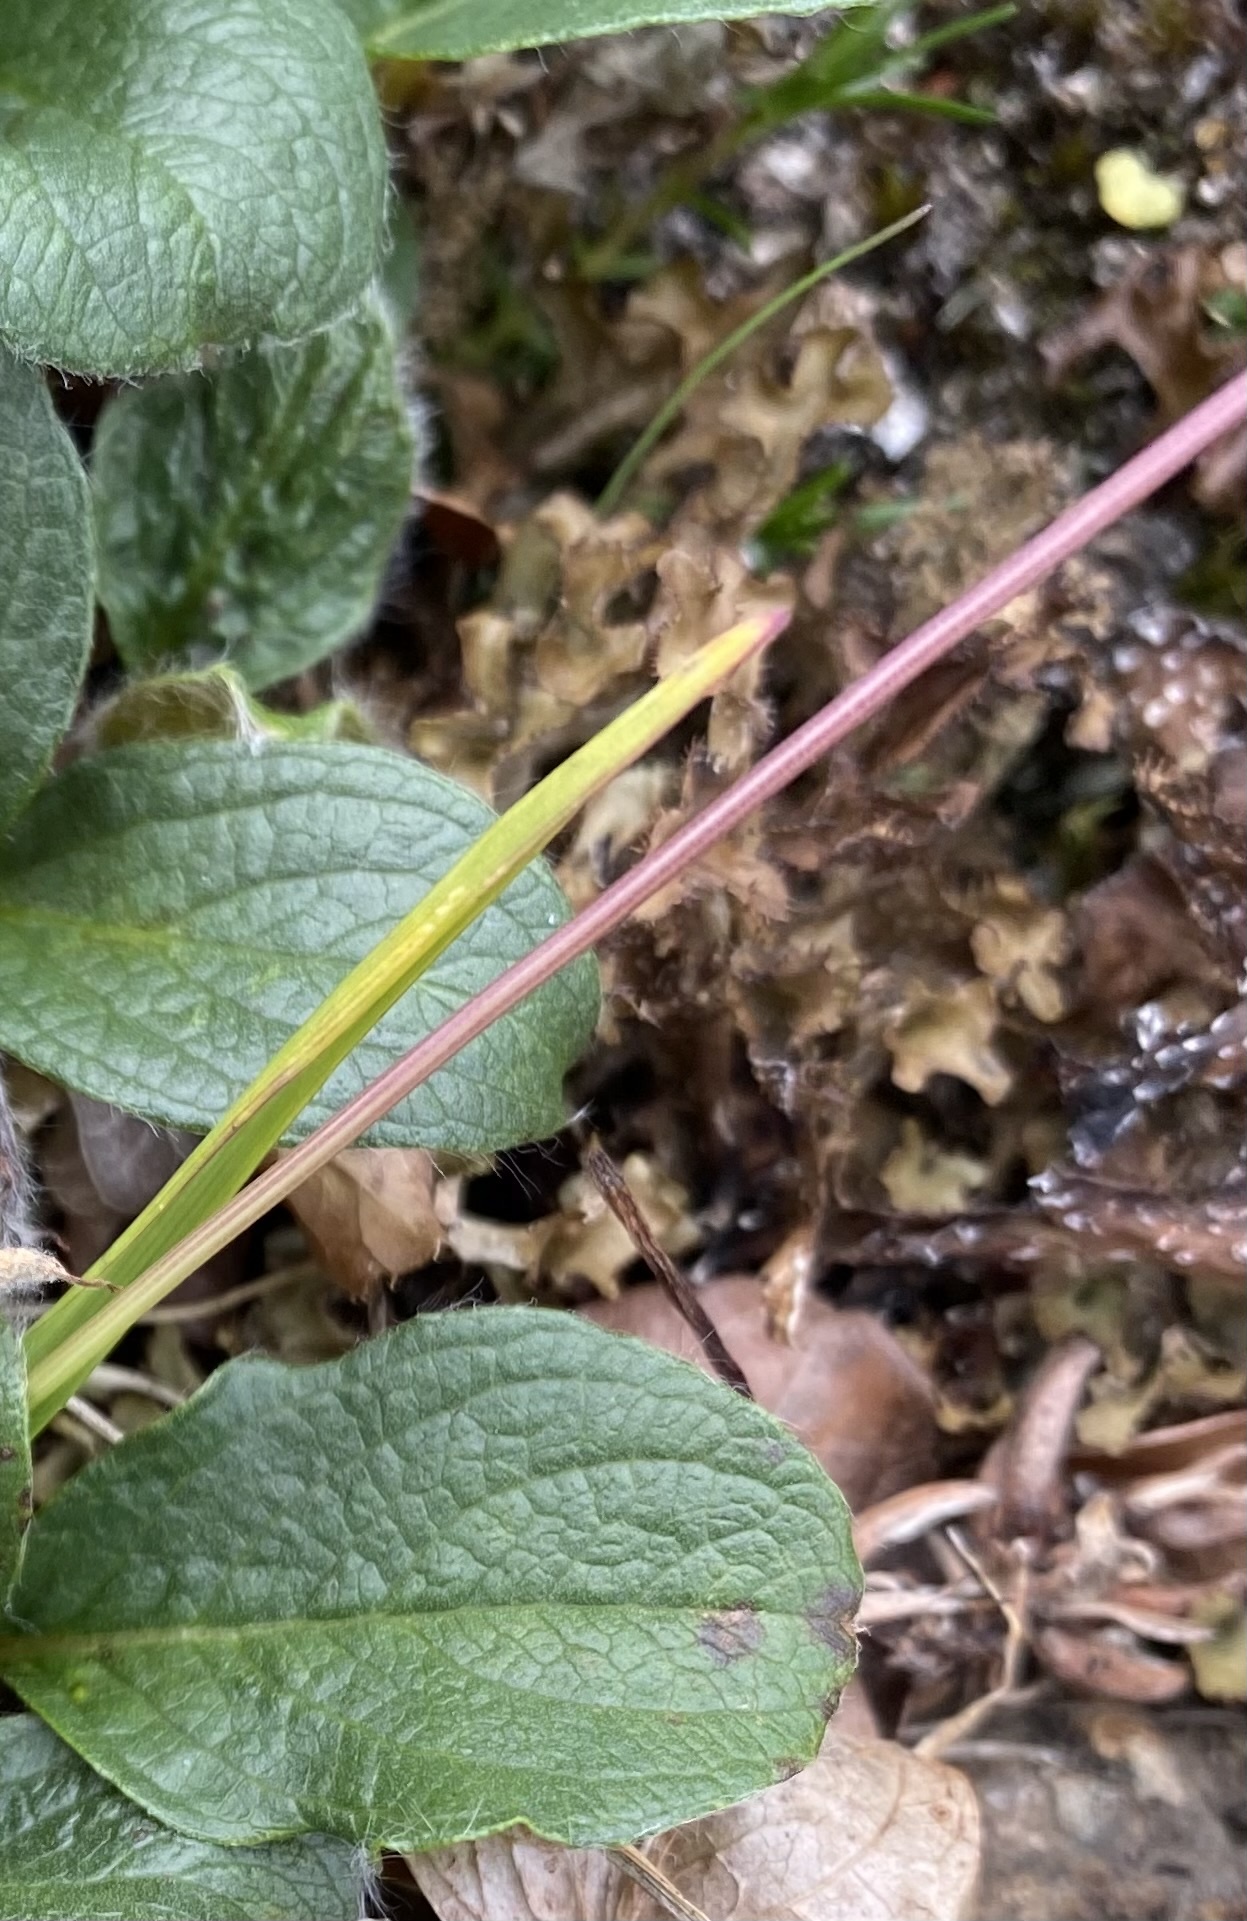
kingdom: Plantae
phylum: Tracheophyta
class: Liliopsida
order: Poales
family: Poaceae
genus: Poa
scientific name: Poa
